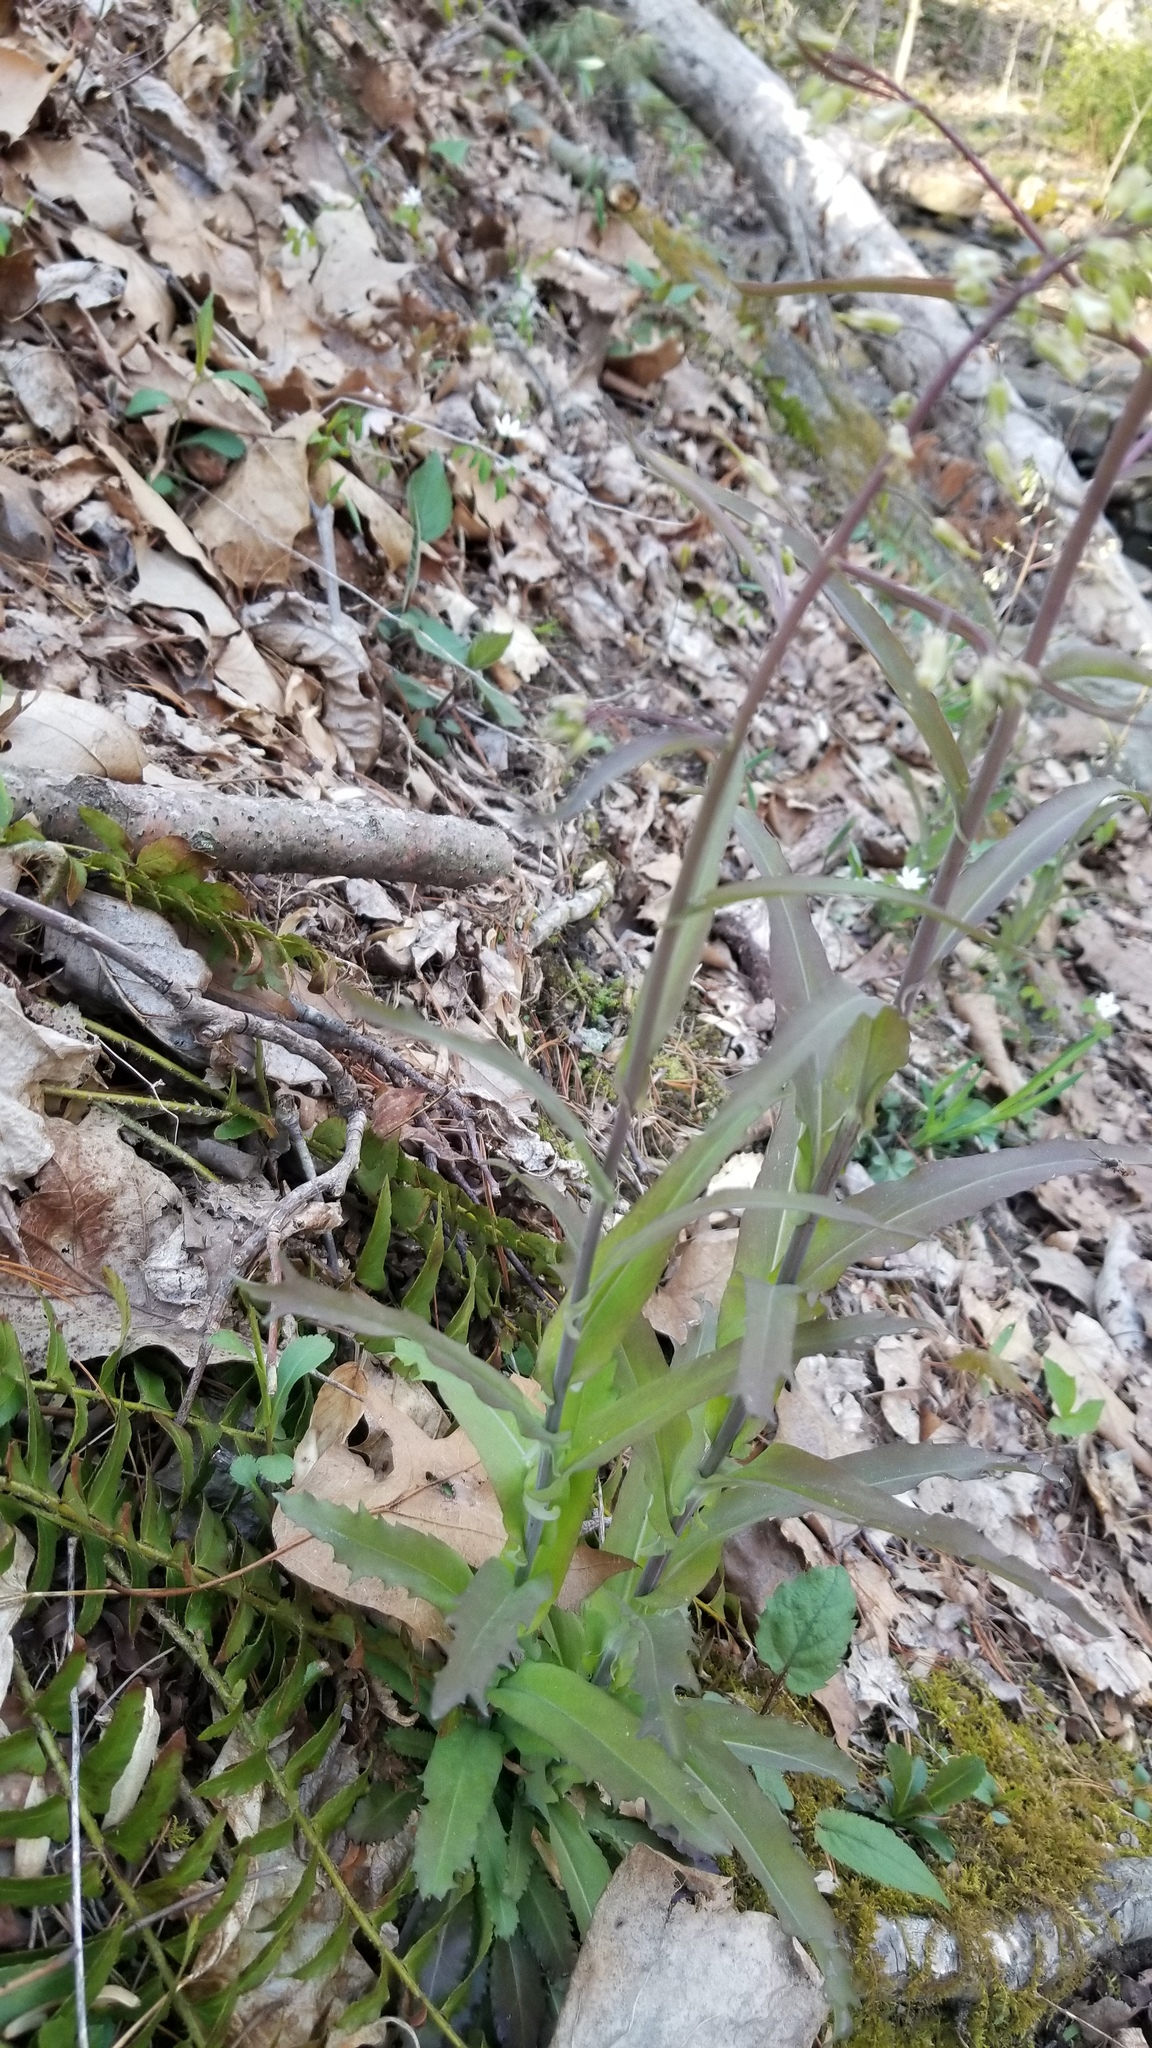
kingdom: Plantae
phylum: Tracheophyta
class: Magnoliopsida
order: Brassicales
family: Brassicaceae
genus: Borodinia
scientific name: Borodinia laevigata
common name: Smooth rockcress
